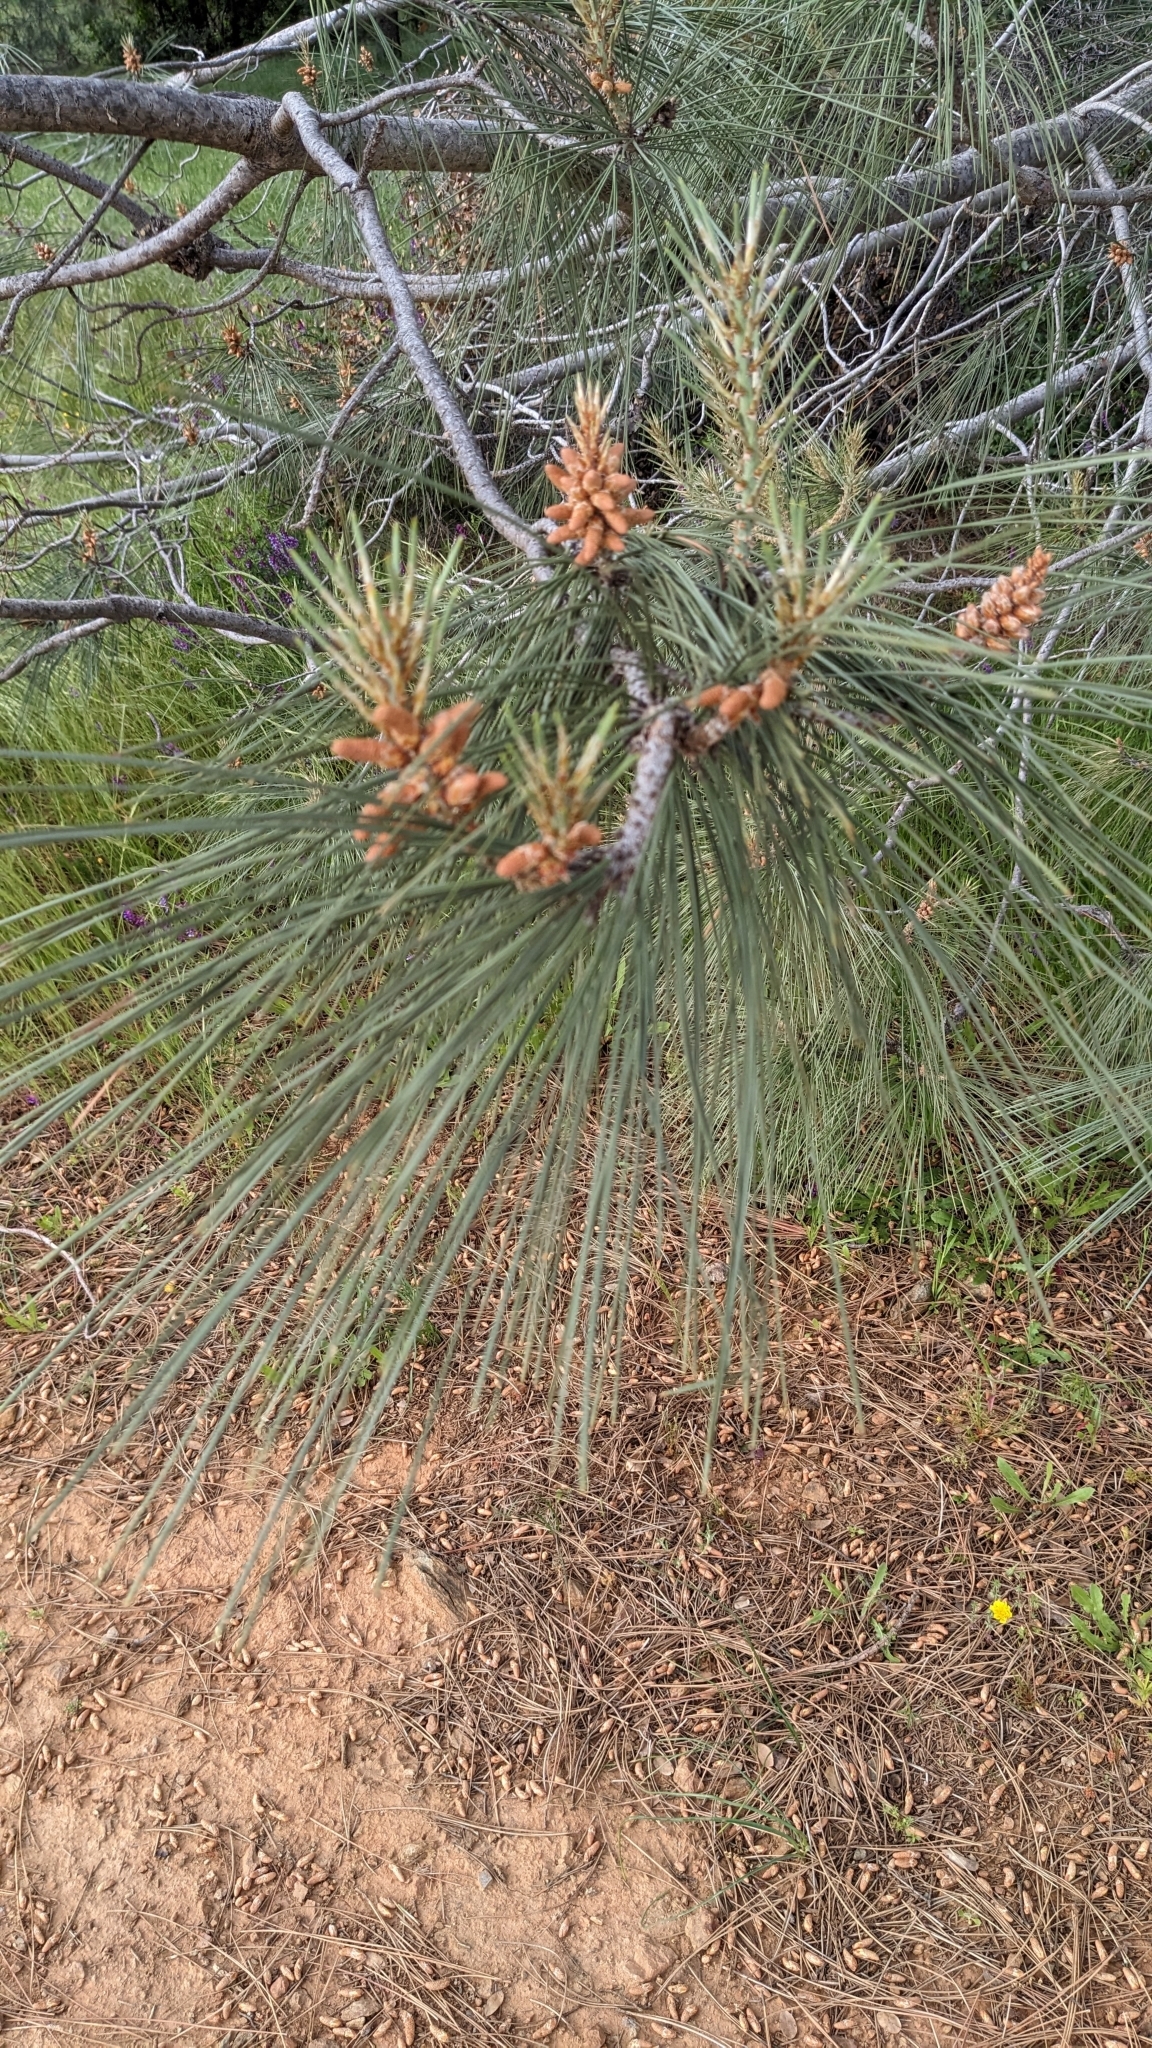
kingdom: Plantae
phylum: Tracheophyta
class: Pinopsida
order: Pinales
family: Pinaceae
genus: Pinus
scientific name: Pinus sabiniana
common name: Bull pine
